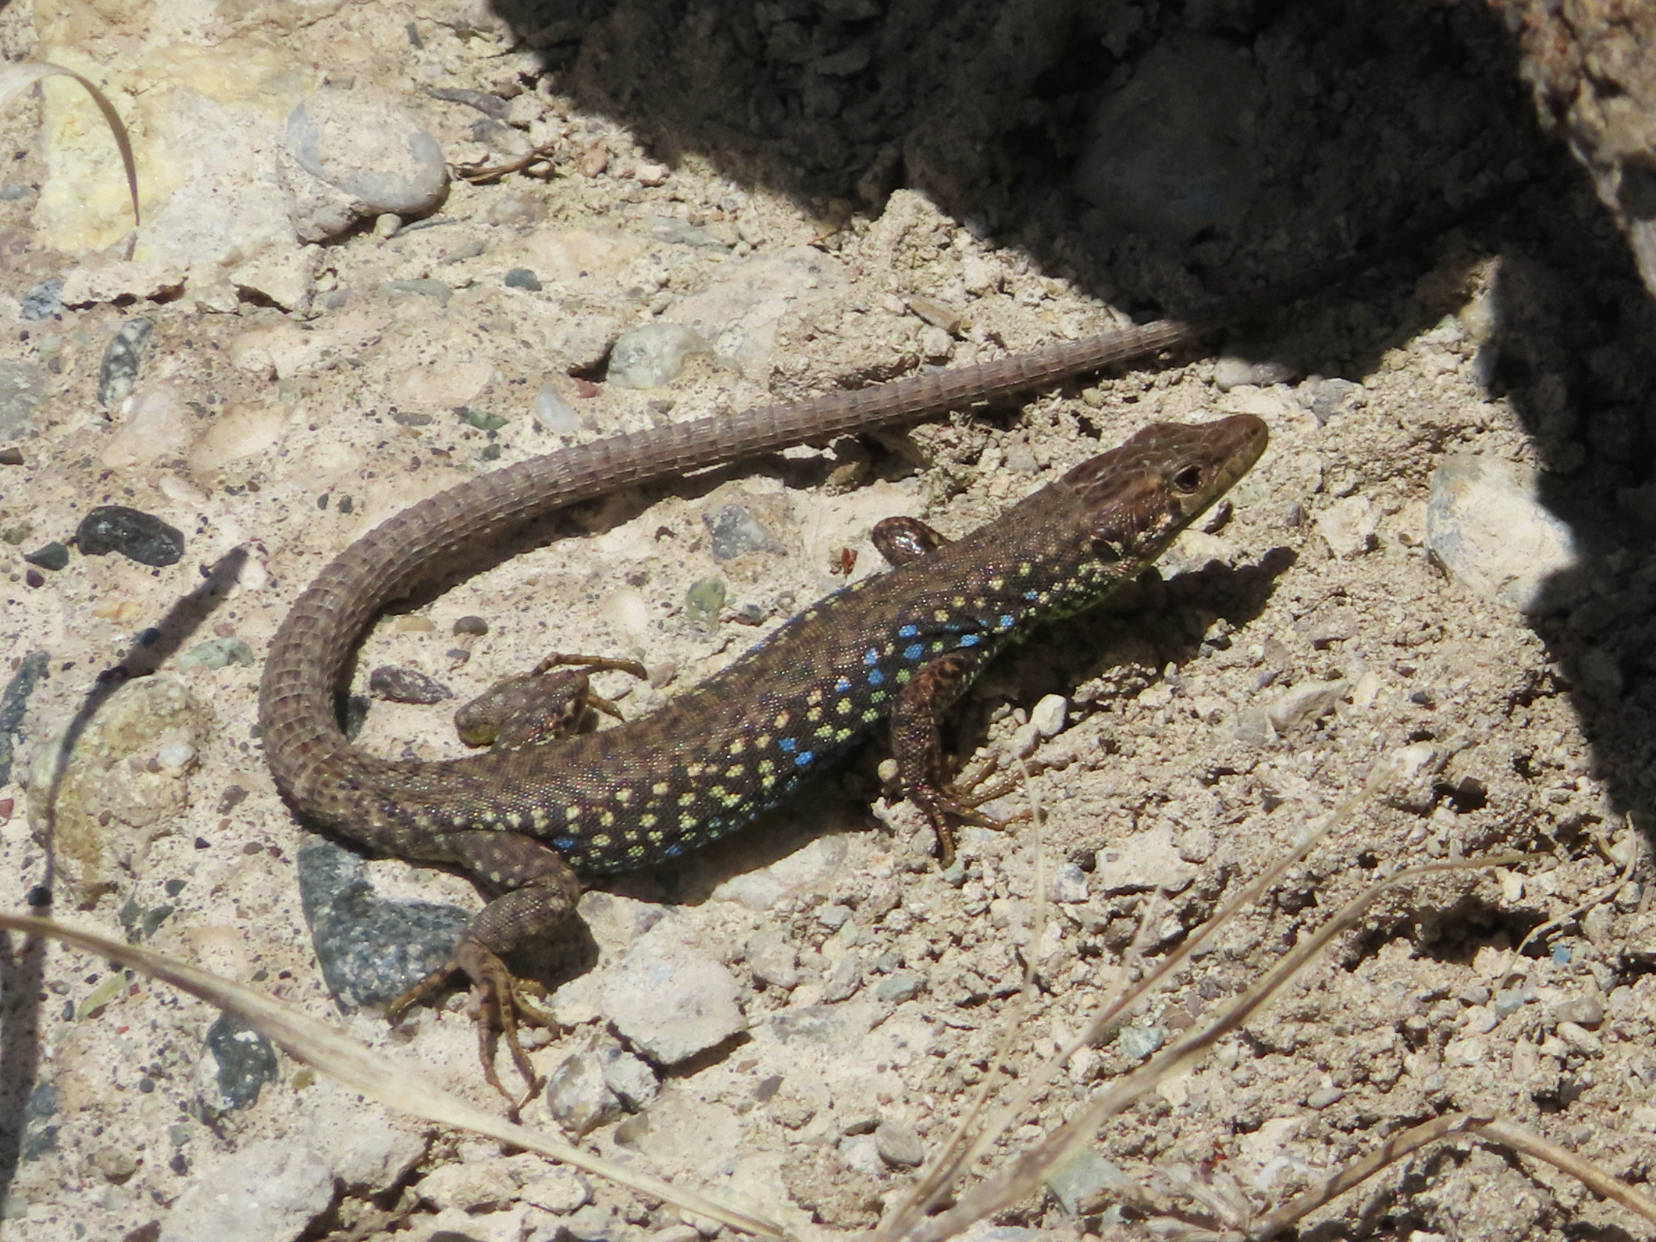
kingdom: Animalia
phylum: Chordata
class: Squamata
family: Lacertidae
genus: Darevskia
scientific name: Darevskia
